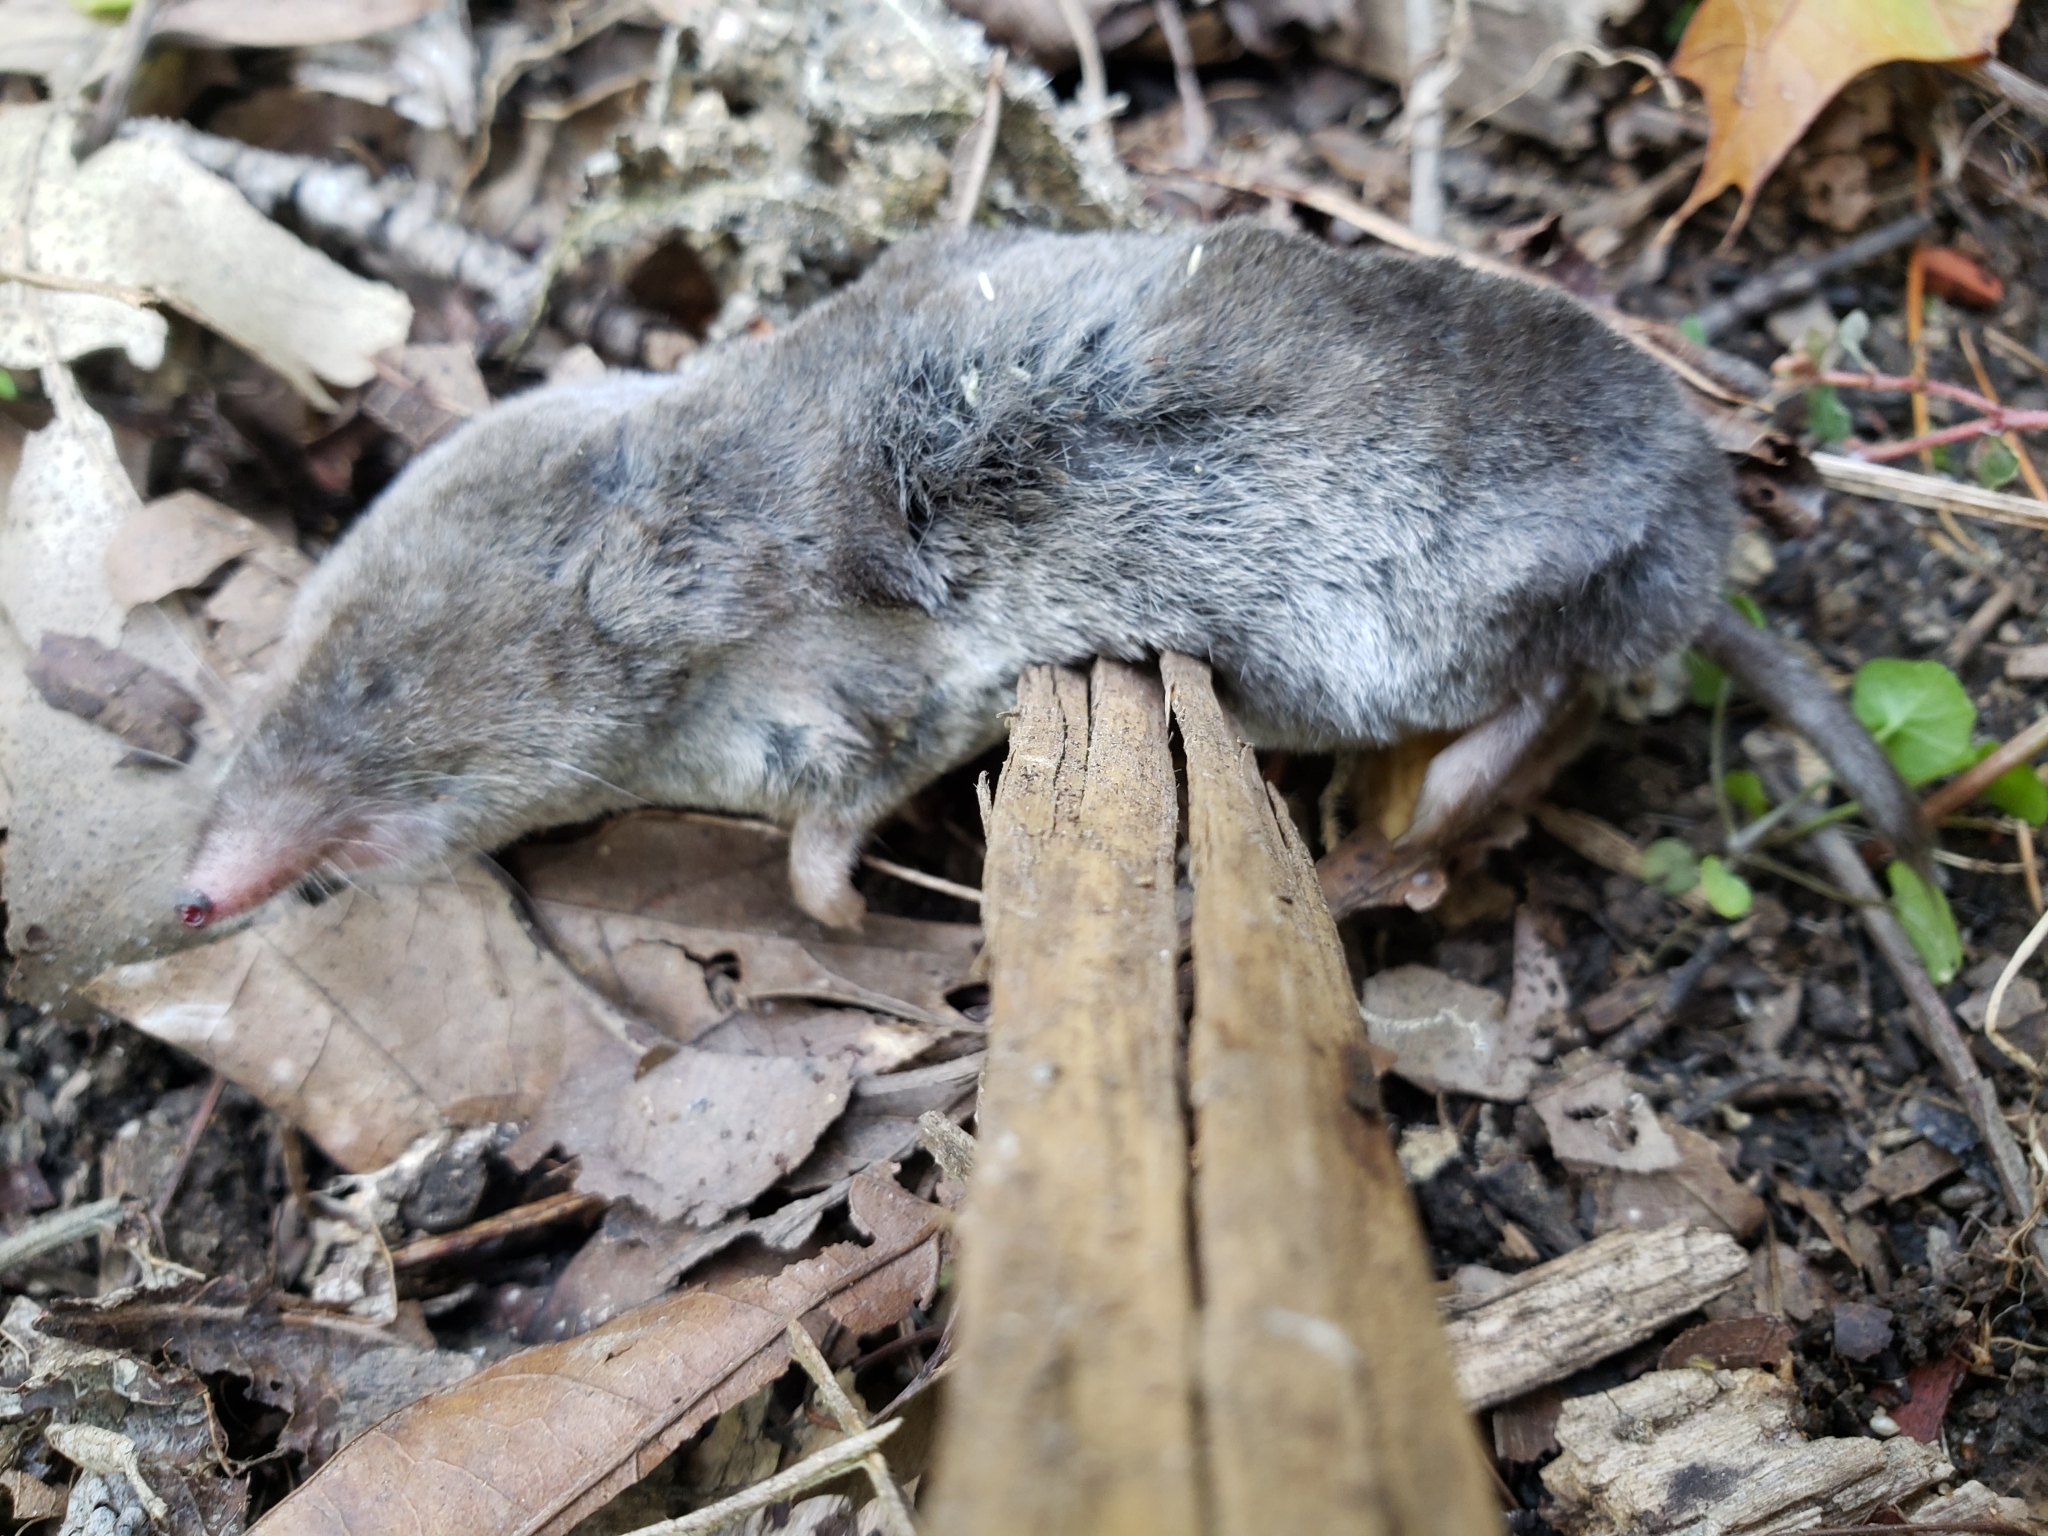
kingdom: Animalia
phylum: Chordata
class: Mammalia
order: Soricomorpha
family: Soricidae
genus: Blarina
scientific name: Blarina brevicauda
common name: Northern short-tailed shrew
